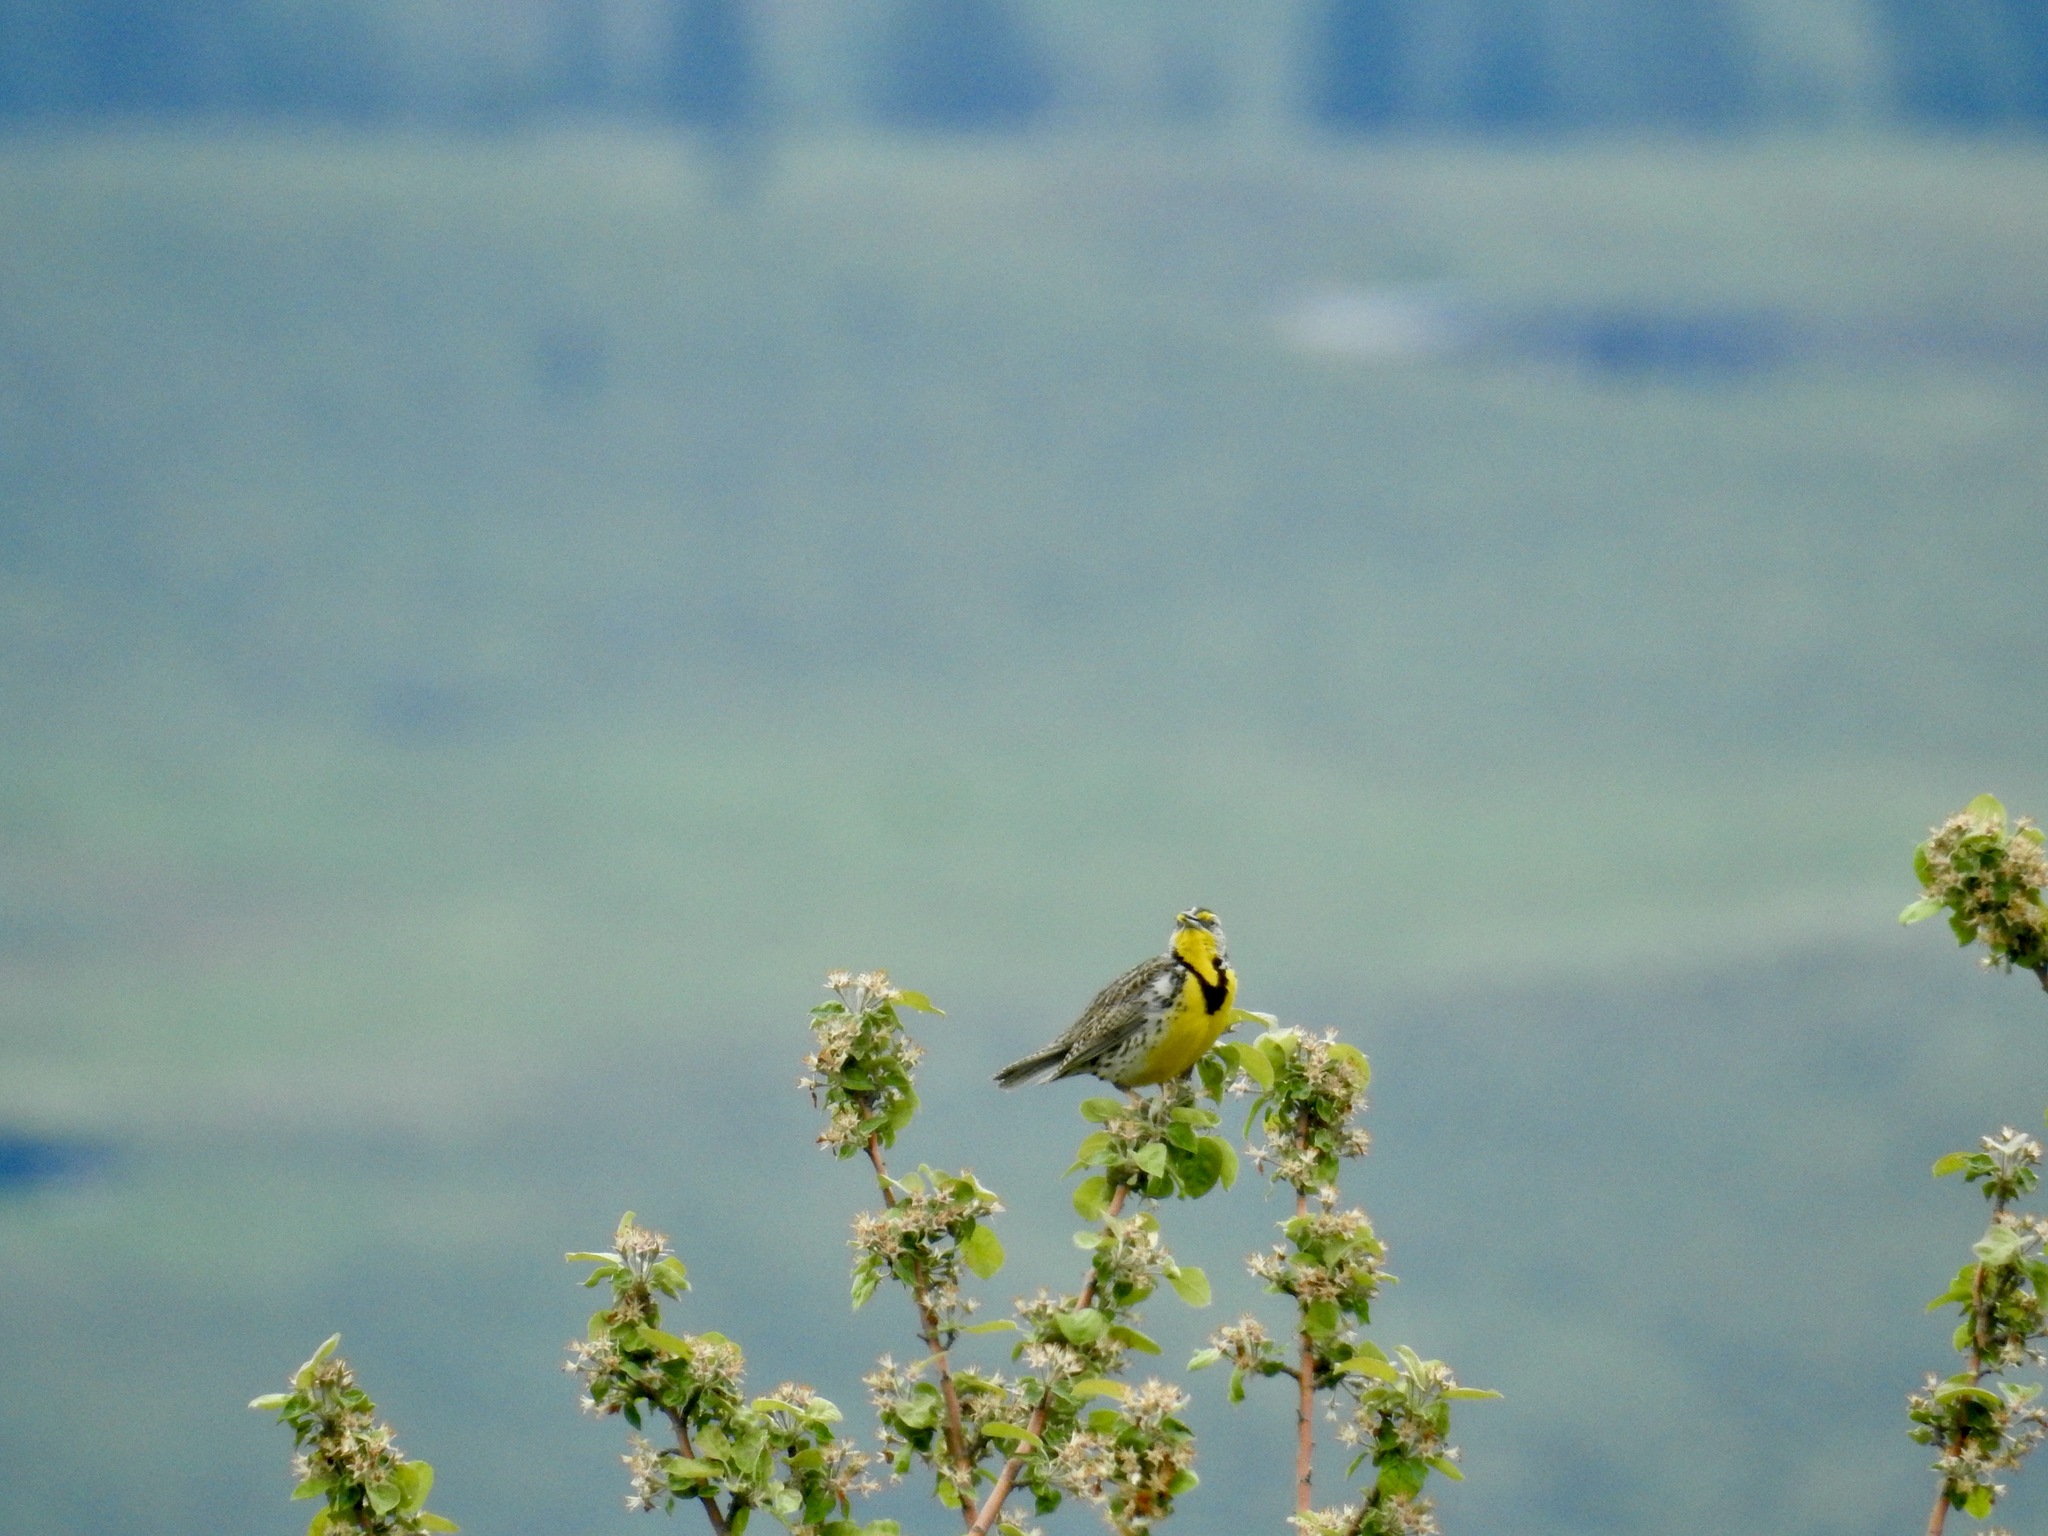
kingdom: Animalia
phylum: Chordata
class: Aves
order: Passeriformes
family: Icteridae
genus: Sturnella
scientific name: Sturnella neglecta
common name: Western meadowlark
